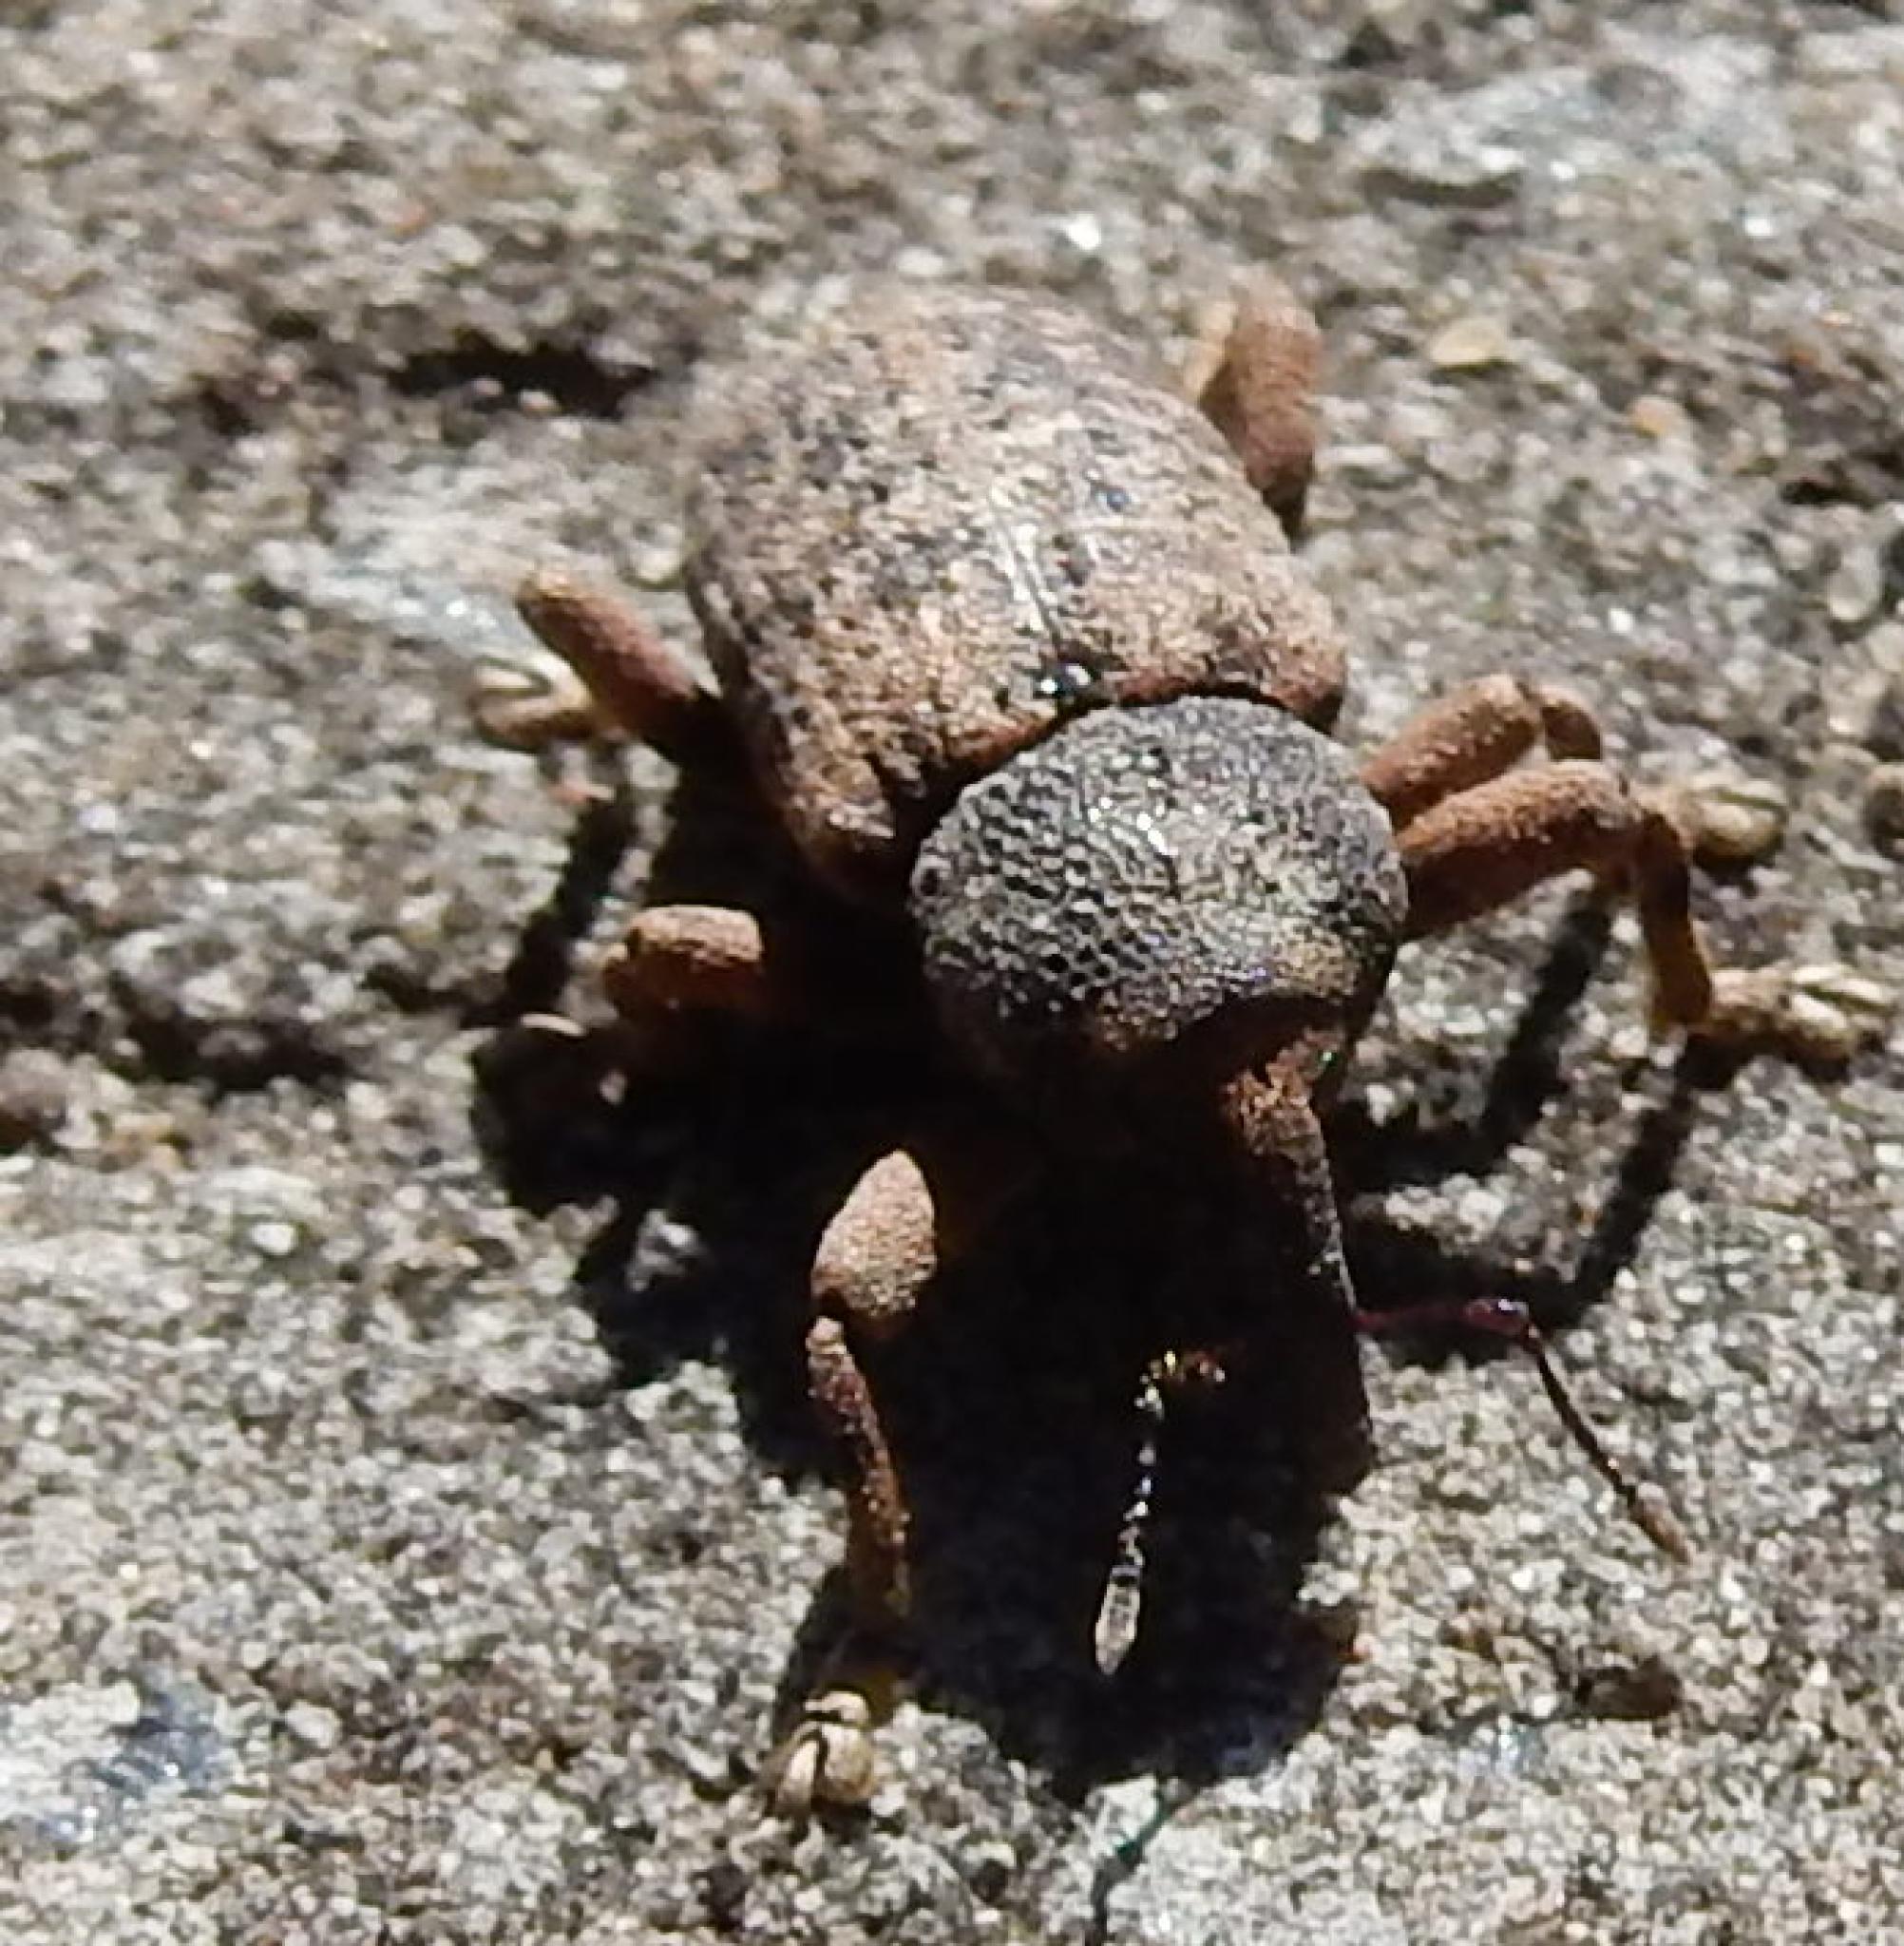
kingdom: Animalia
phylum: Arthropoda
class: Insecta
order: Coleoptera
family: Curculionidae
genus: Rhadinomerus
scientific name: Rhadinomerus
